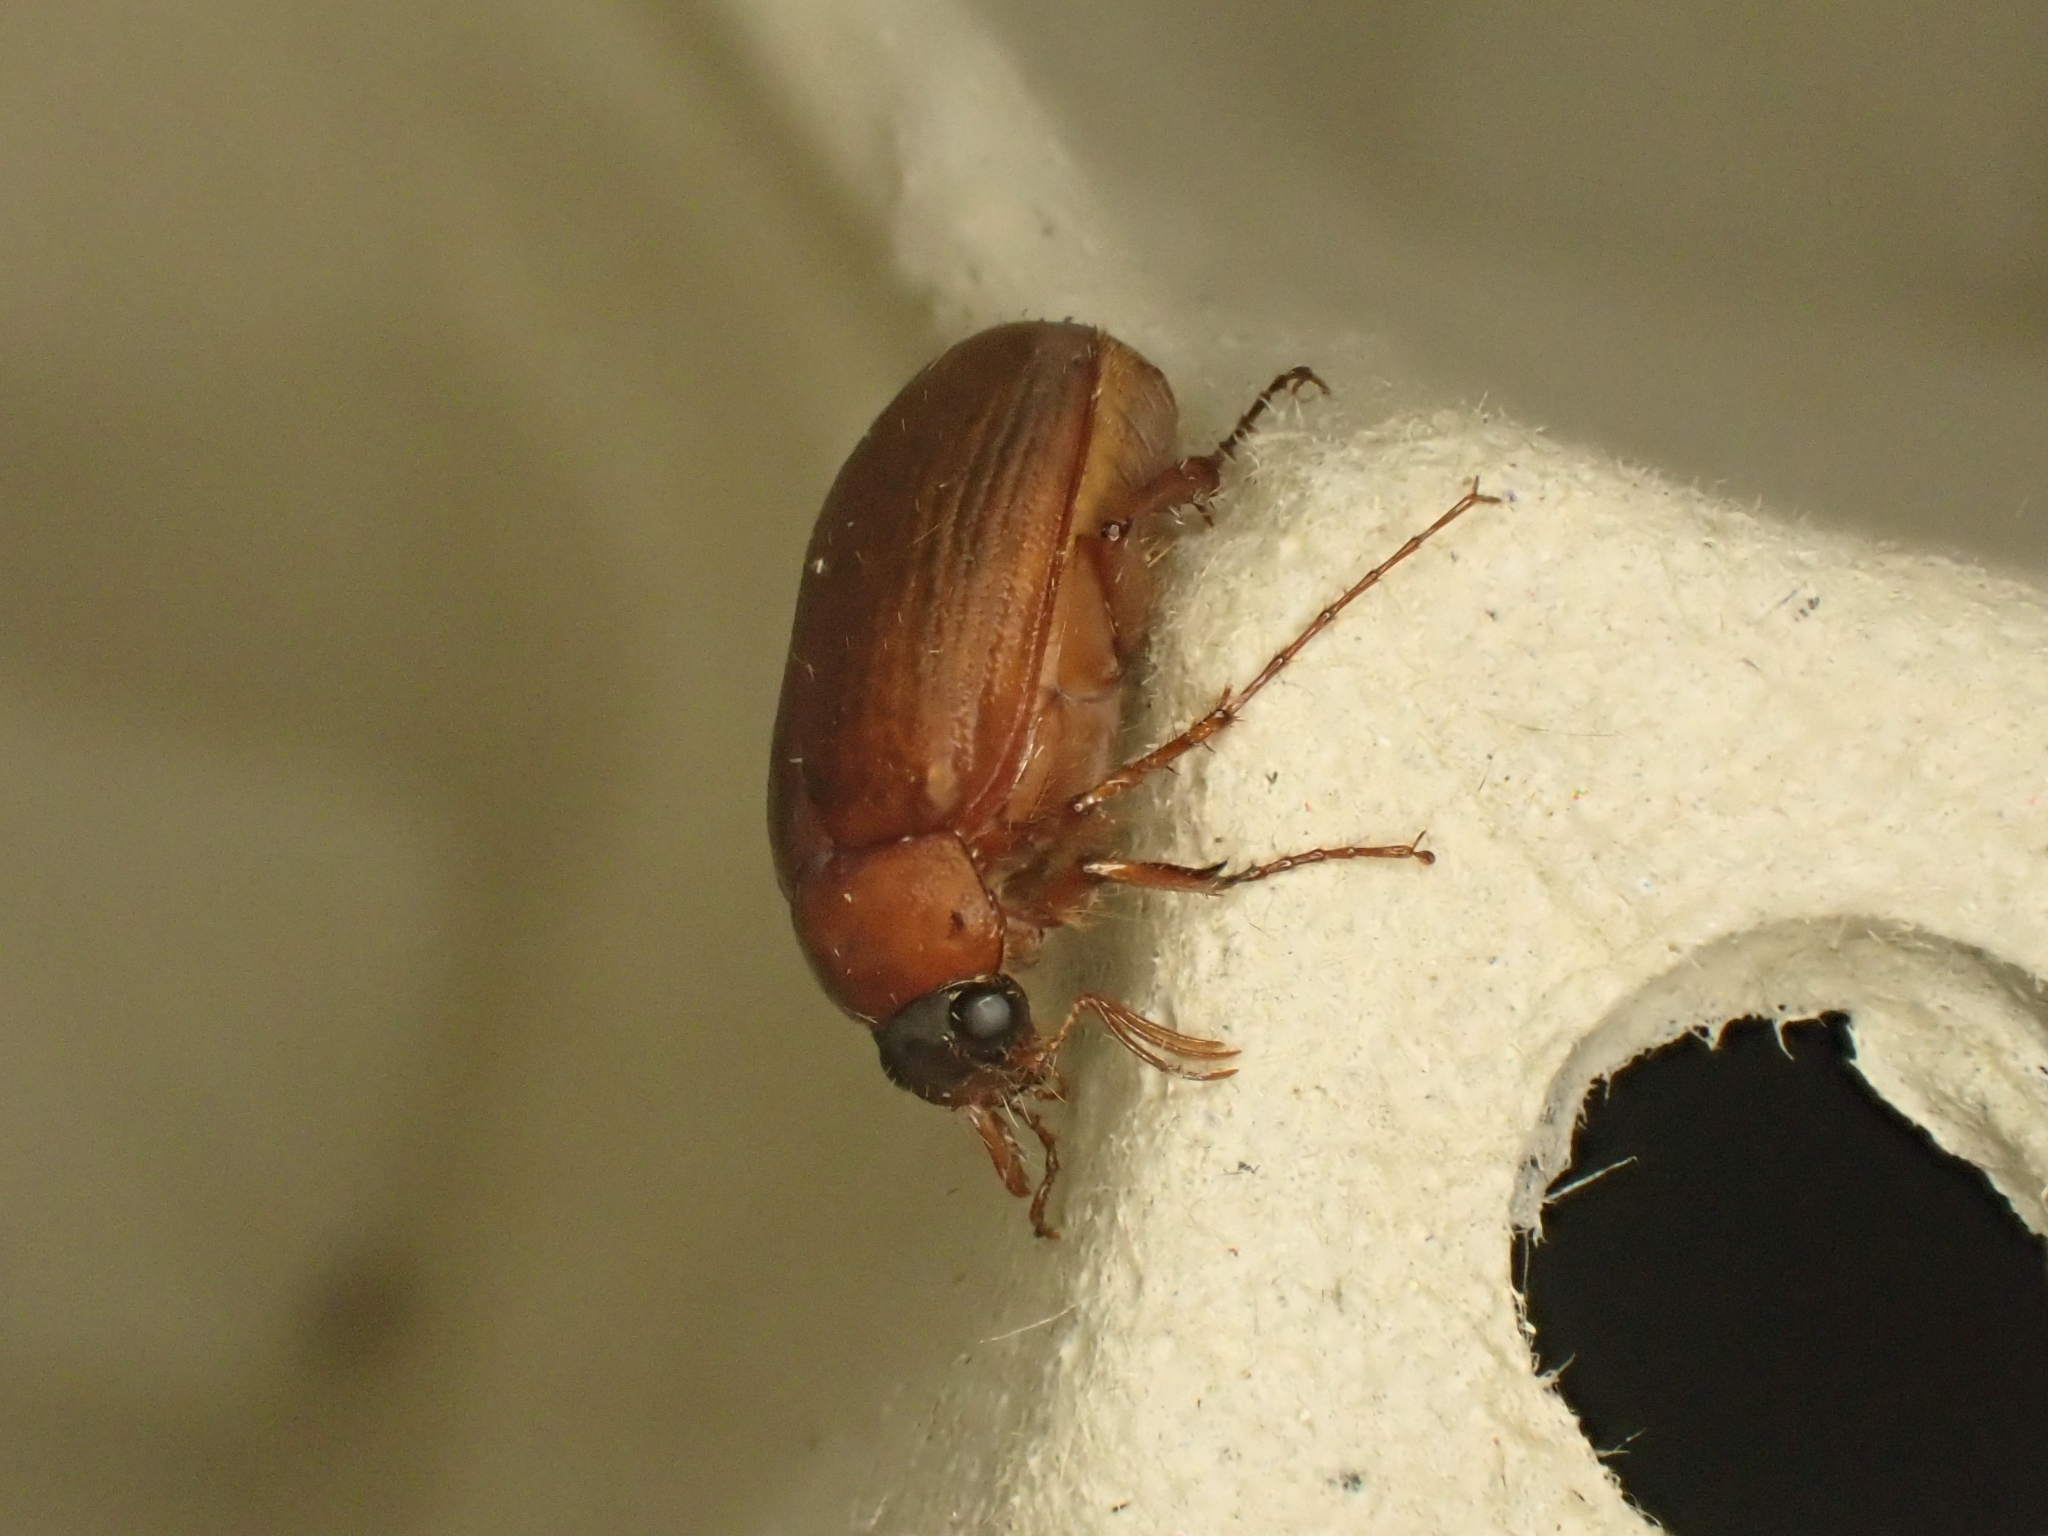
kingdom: Animalia
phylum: Arthropoda
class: Insecta
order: Coleoptera
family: Scarabaeidae
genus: Serica
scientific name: Serica brunnea
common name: Brown chafer
